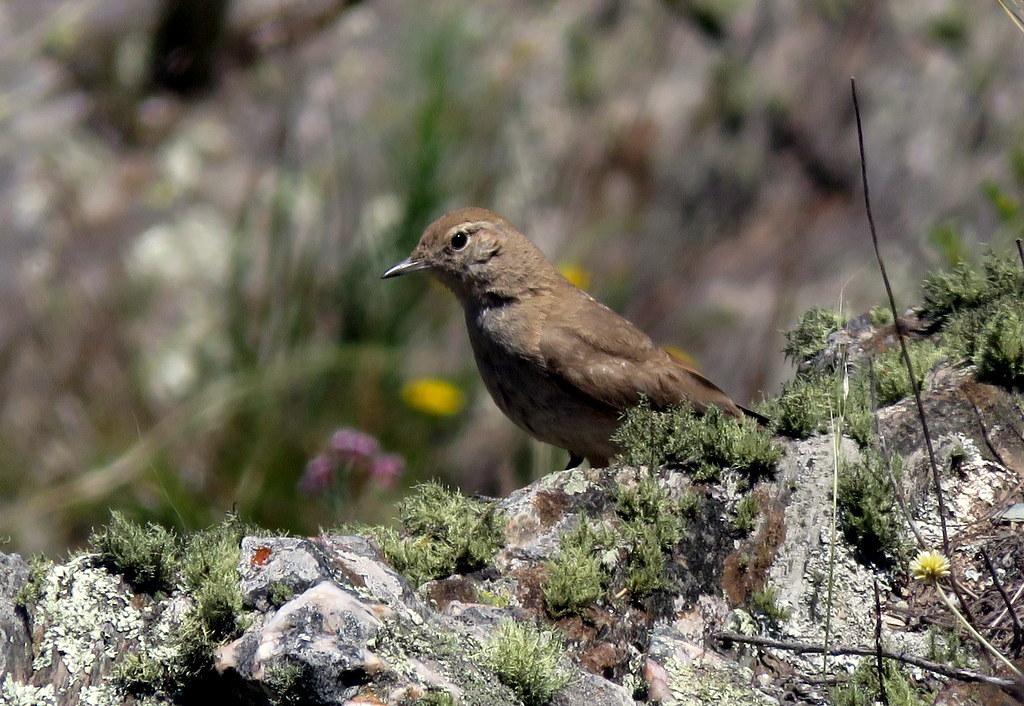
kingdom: Animalia
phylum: Chordata
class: Aves
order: Passeriformes
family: Furnariidae
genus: Geositta
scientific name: Geositta rufipennis
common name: Rufous-banded miner
